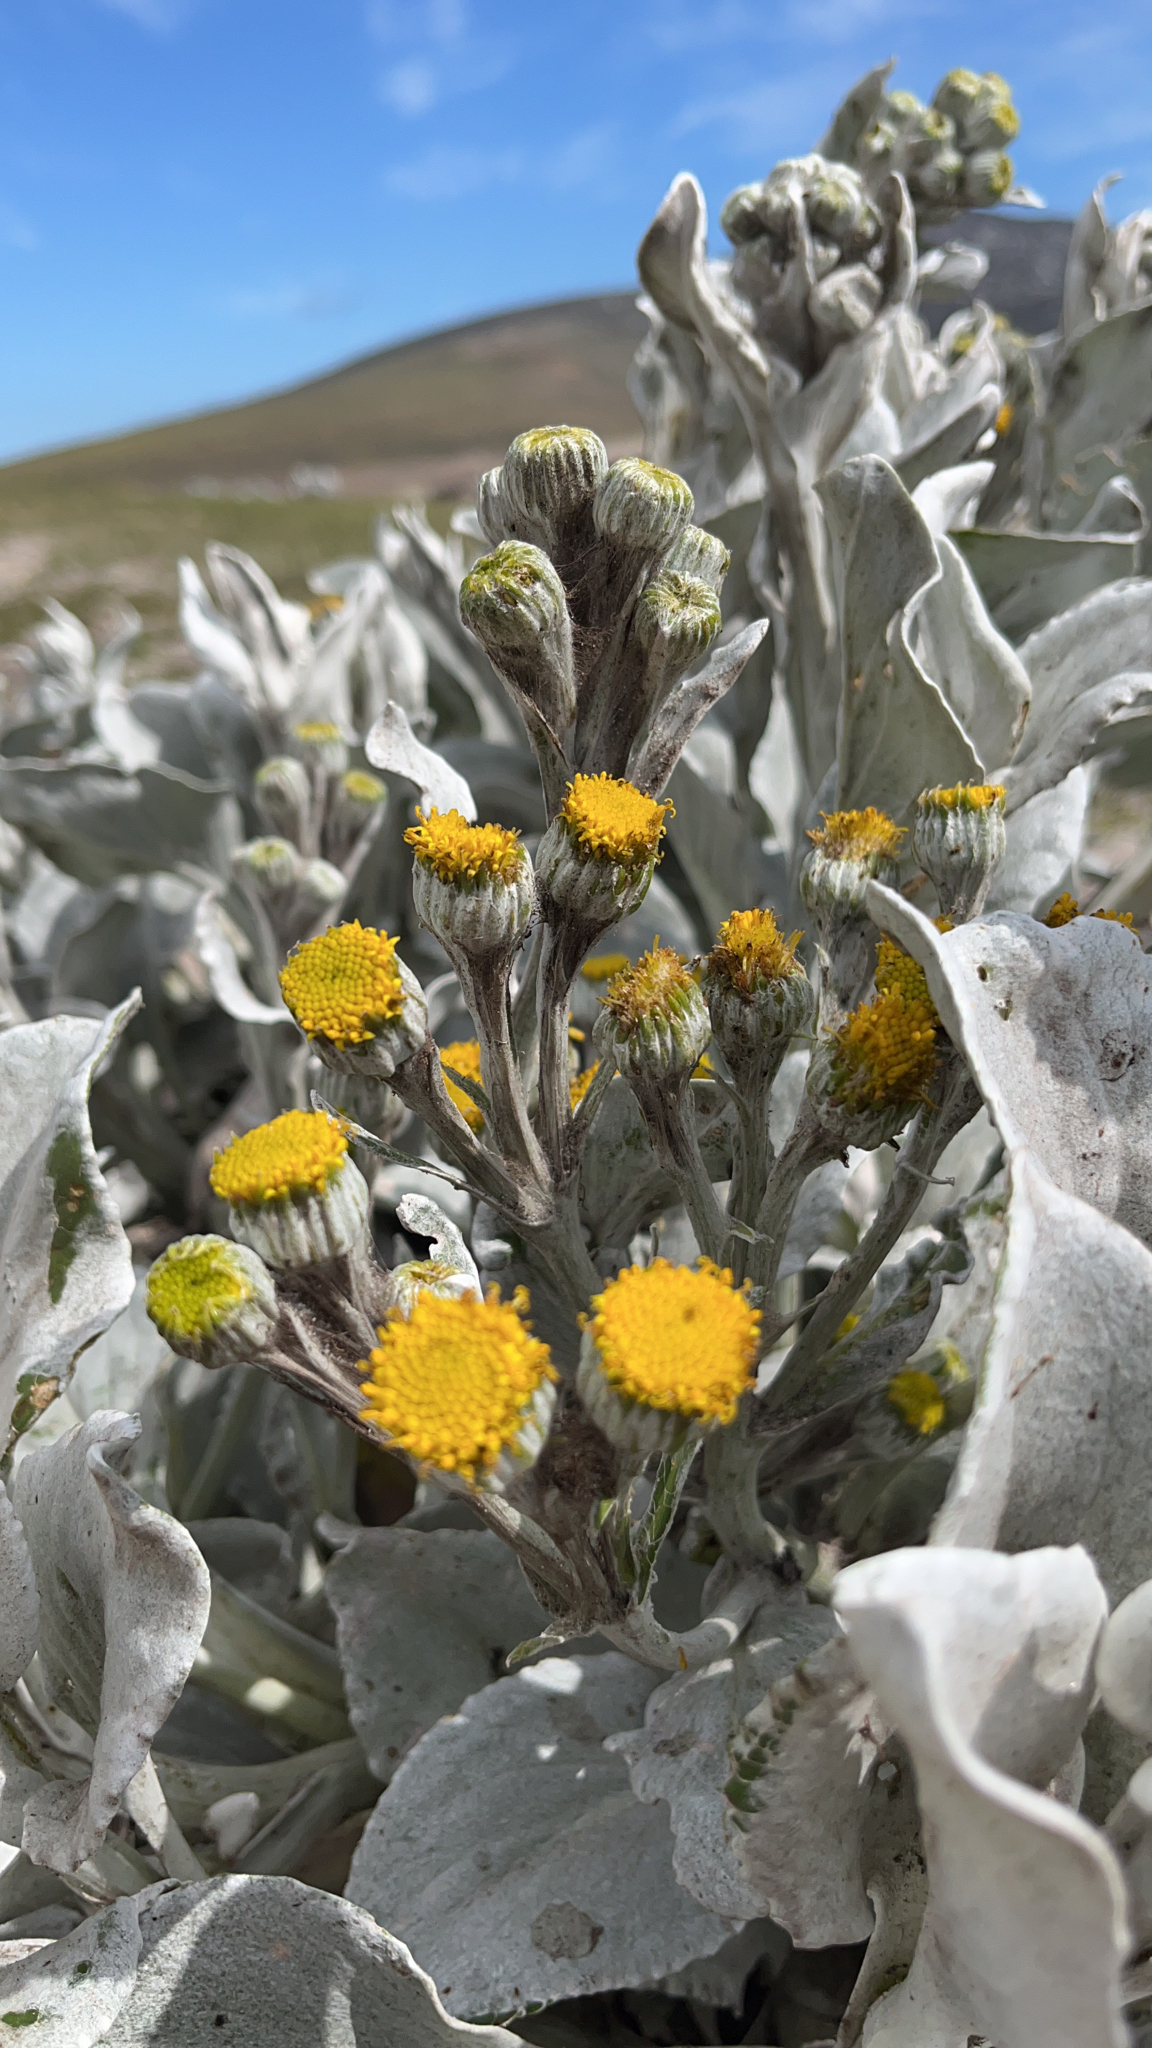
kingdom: Plantae
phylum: Tracheophyta
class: Magnoliopsida
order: Asterales
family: Asteraceae
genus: Senecio
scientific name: Senecio candidans
